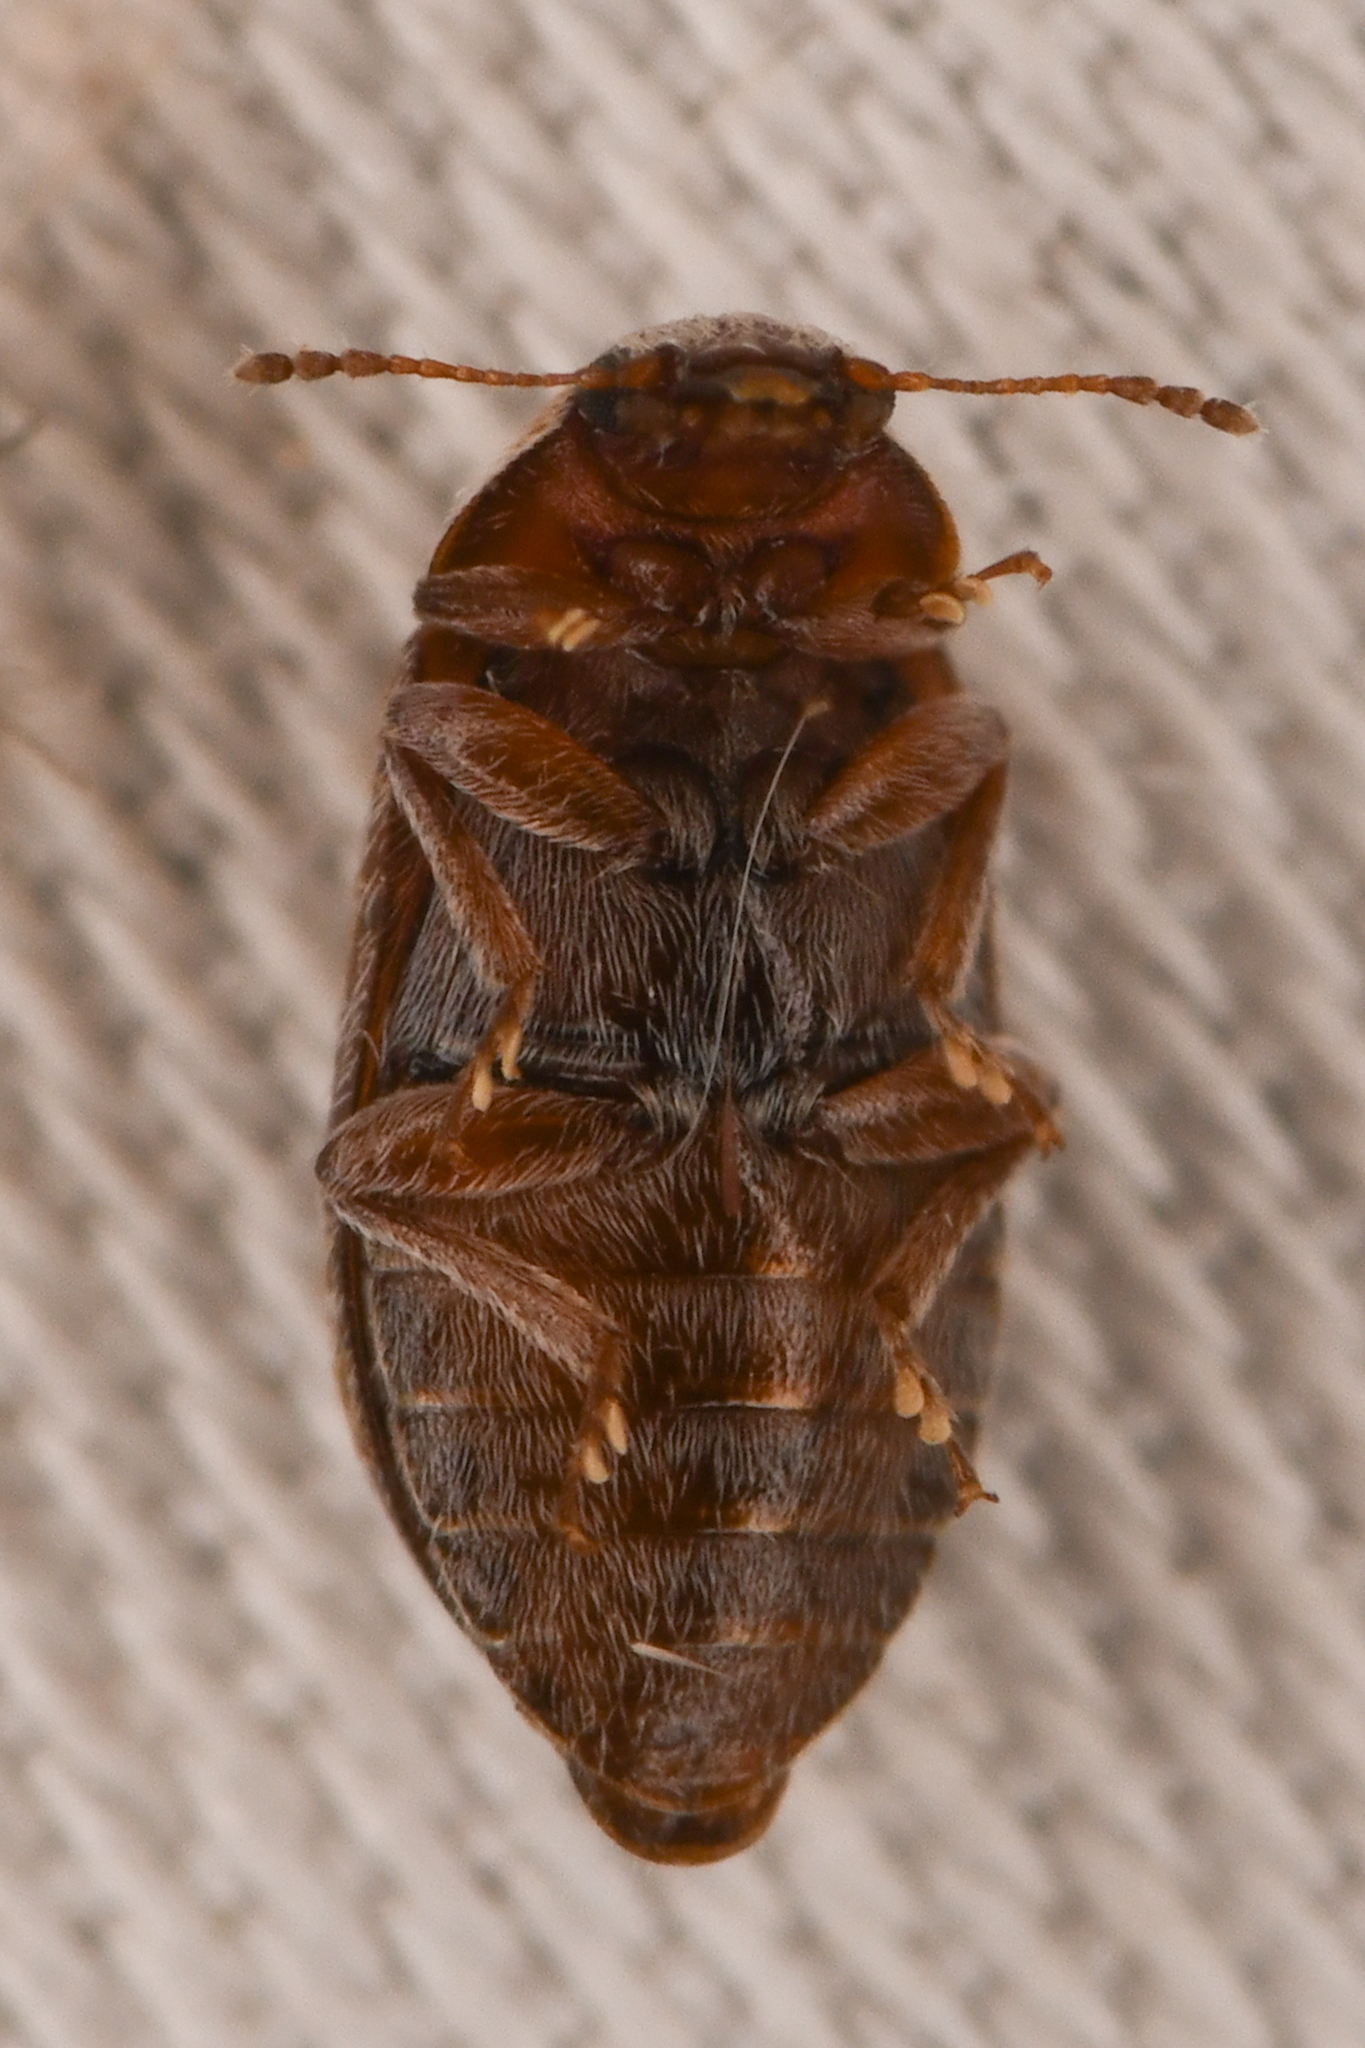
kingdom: Animalia
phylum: Arthropoda
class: Insecta
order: Coleoptera
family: Byturidae
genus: Xerasia
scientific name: Xerasia grisescens
